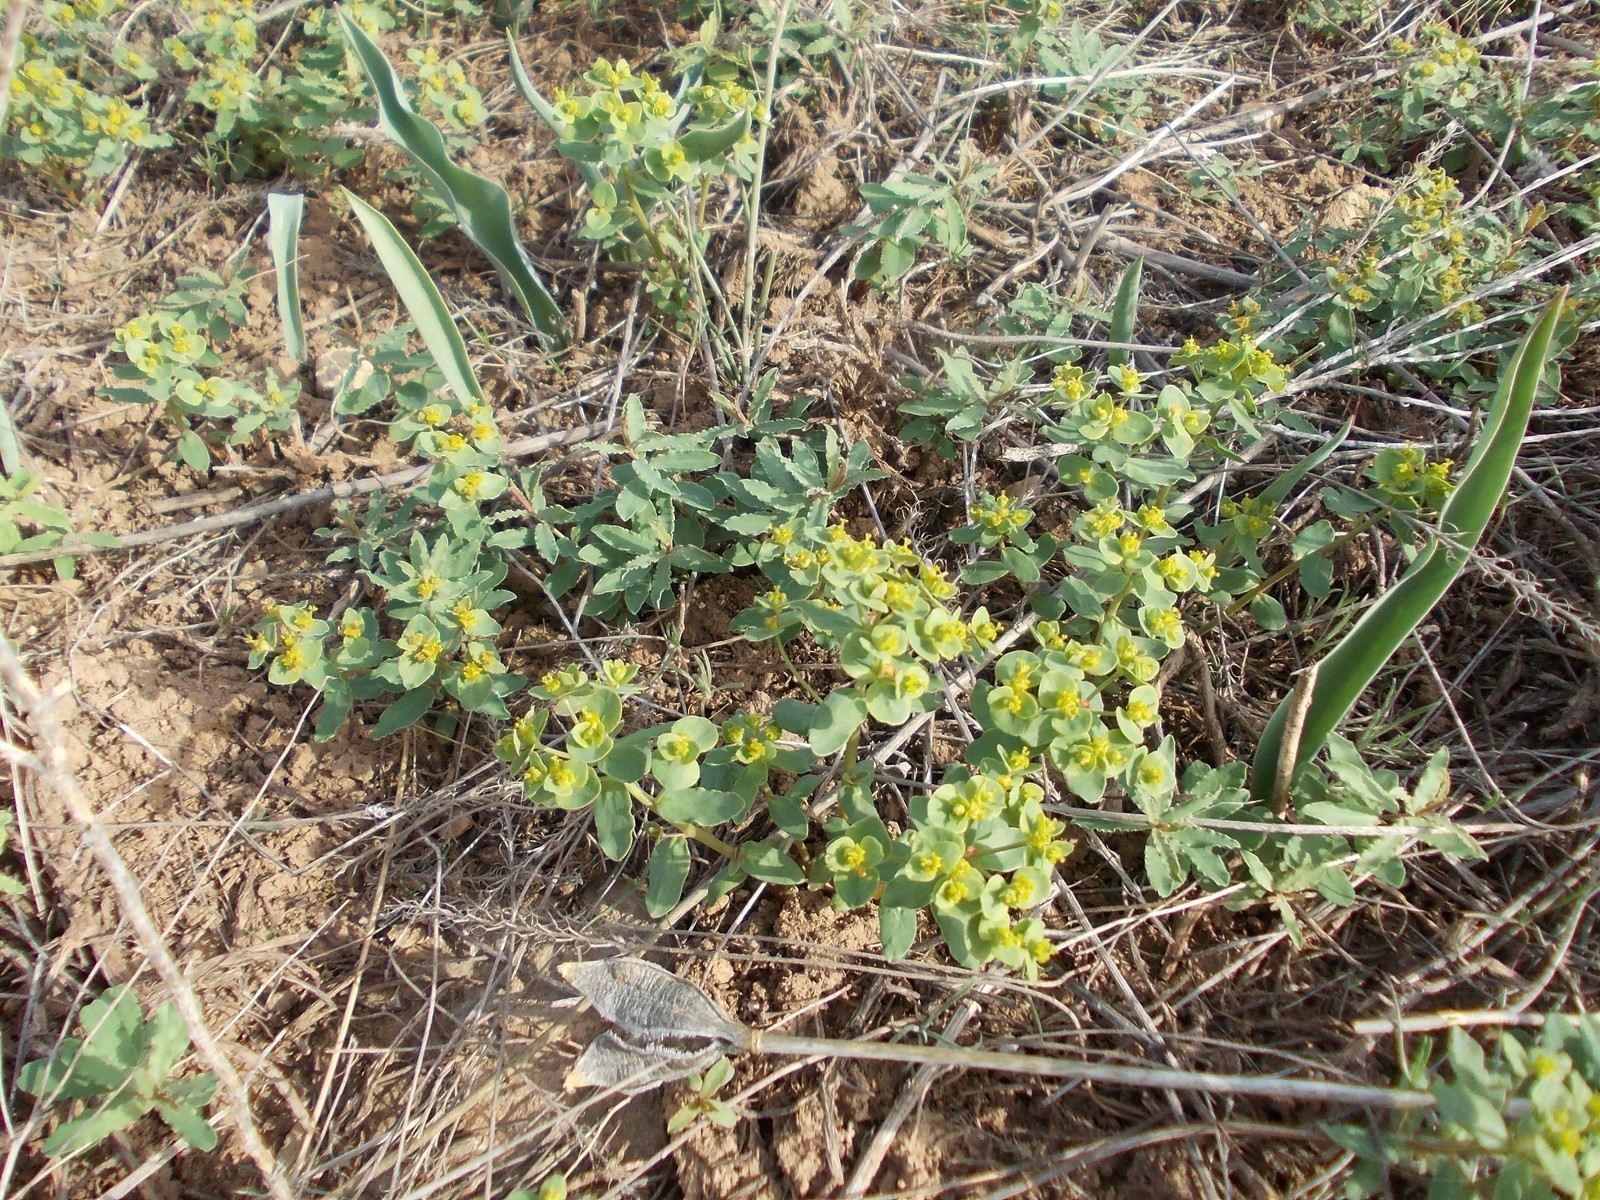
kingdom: Plantae
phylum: Tracheophyta
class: Magnoliopsida
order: Malpighiales
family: Euphorbiaceae
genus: Euphorbia
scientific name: Euphorbia undulata
